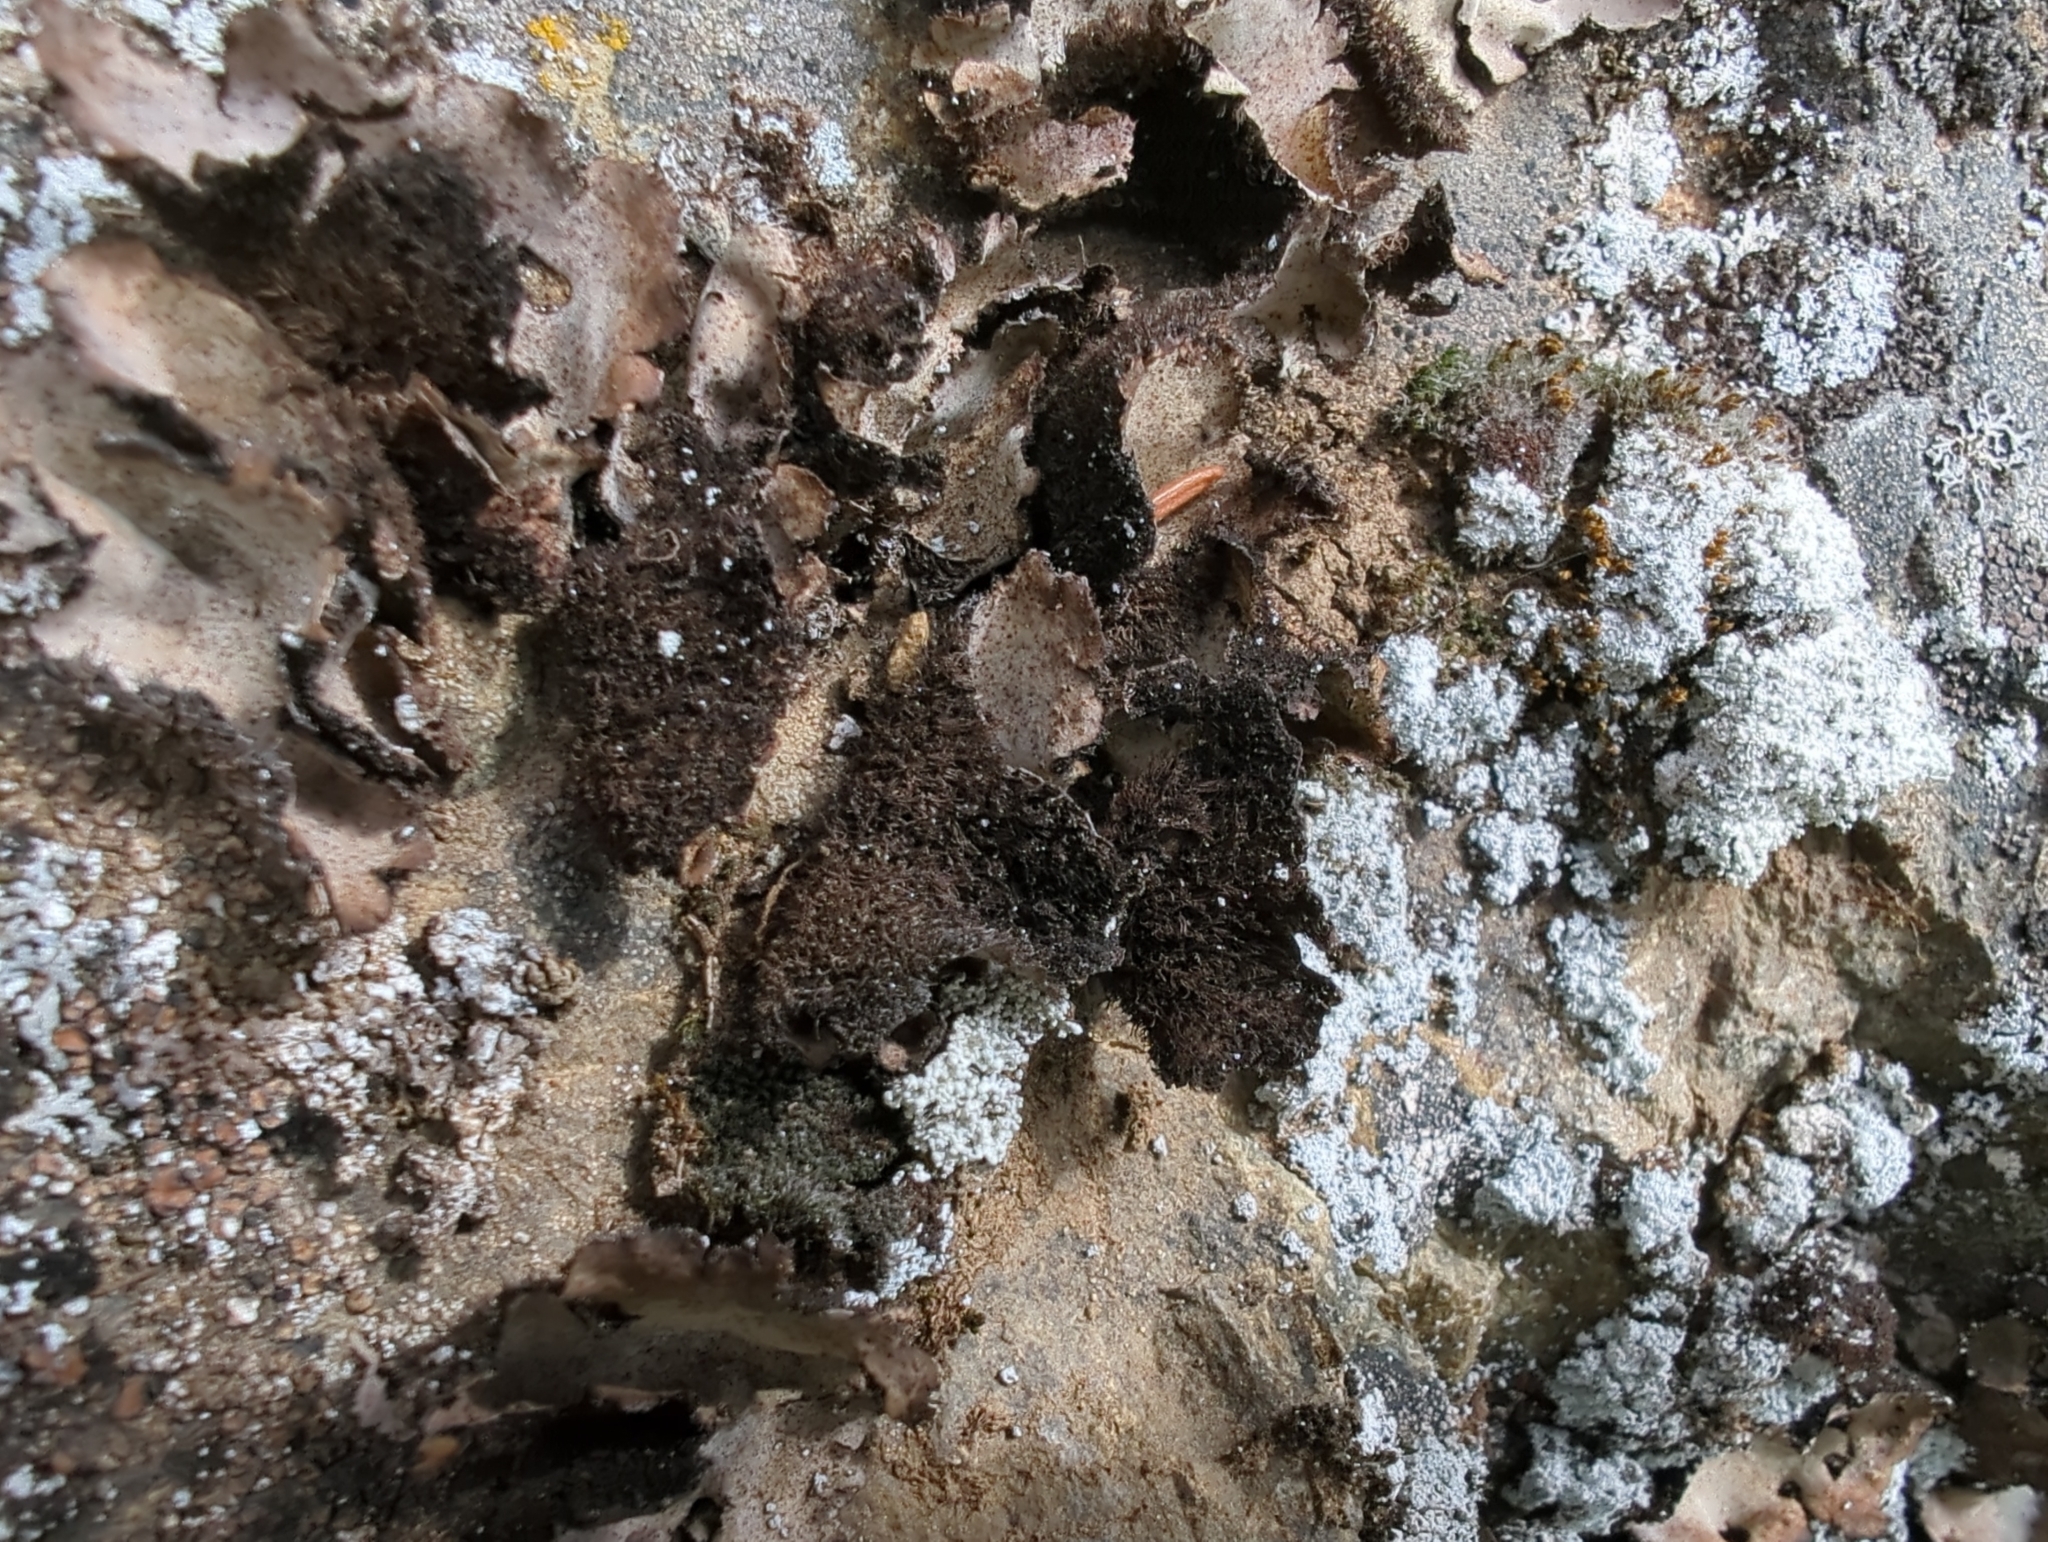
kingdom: Fungi
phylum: Ascomycota
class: Lecanoromycetes
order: Umbilicariales
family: Umbilicariaceae
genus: Umbilicaria
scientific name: Umbilicaria hirsuta
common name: Granulating rocktripe lichen
